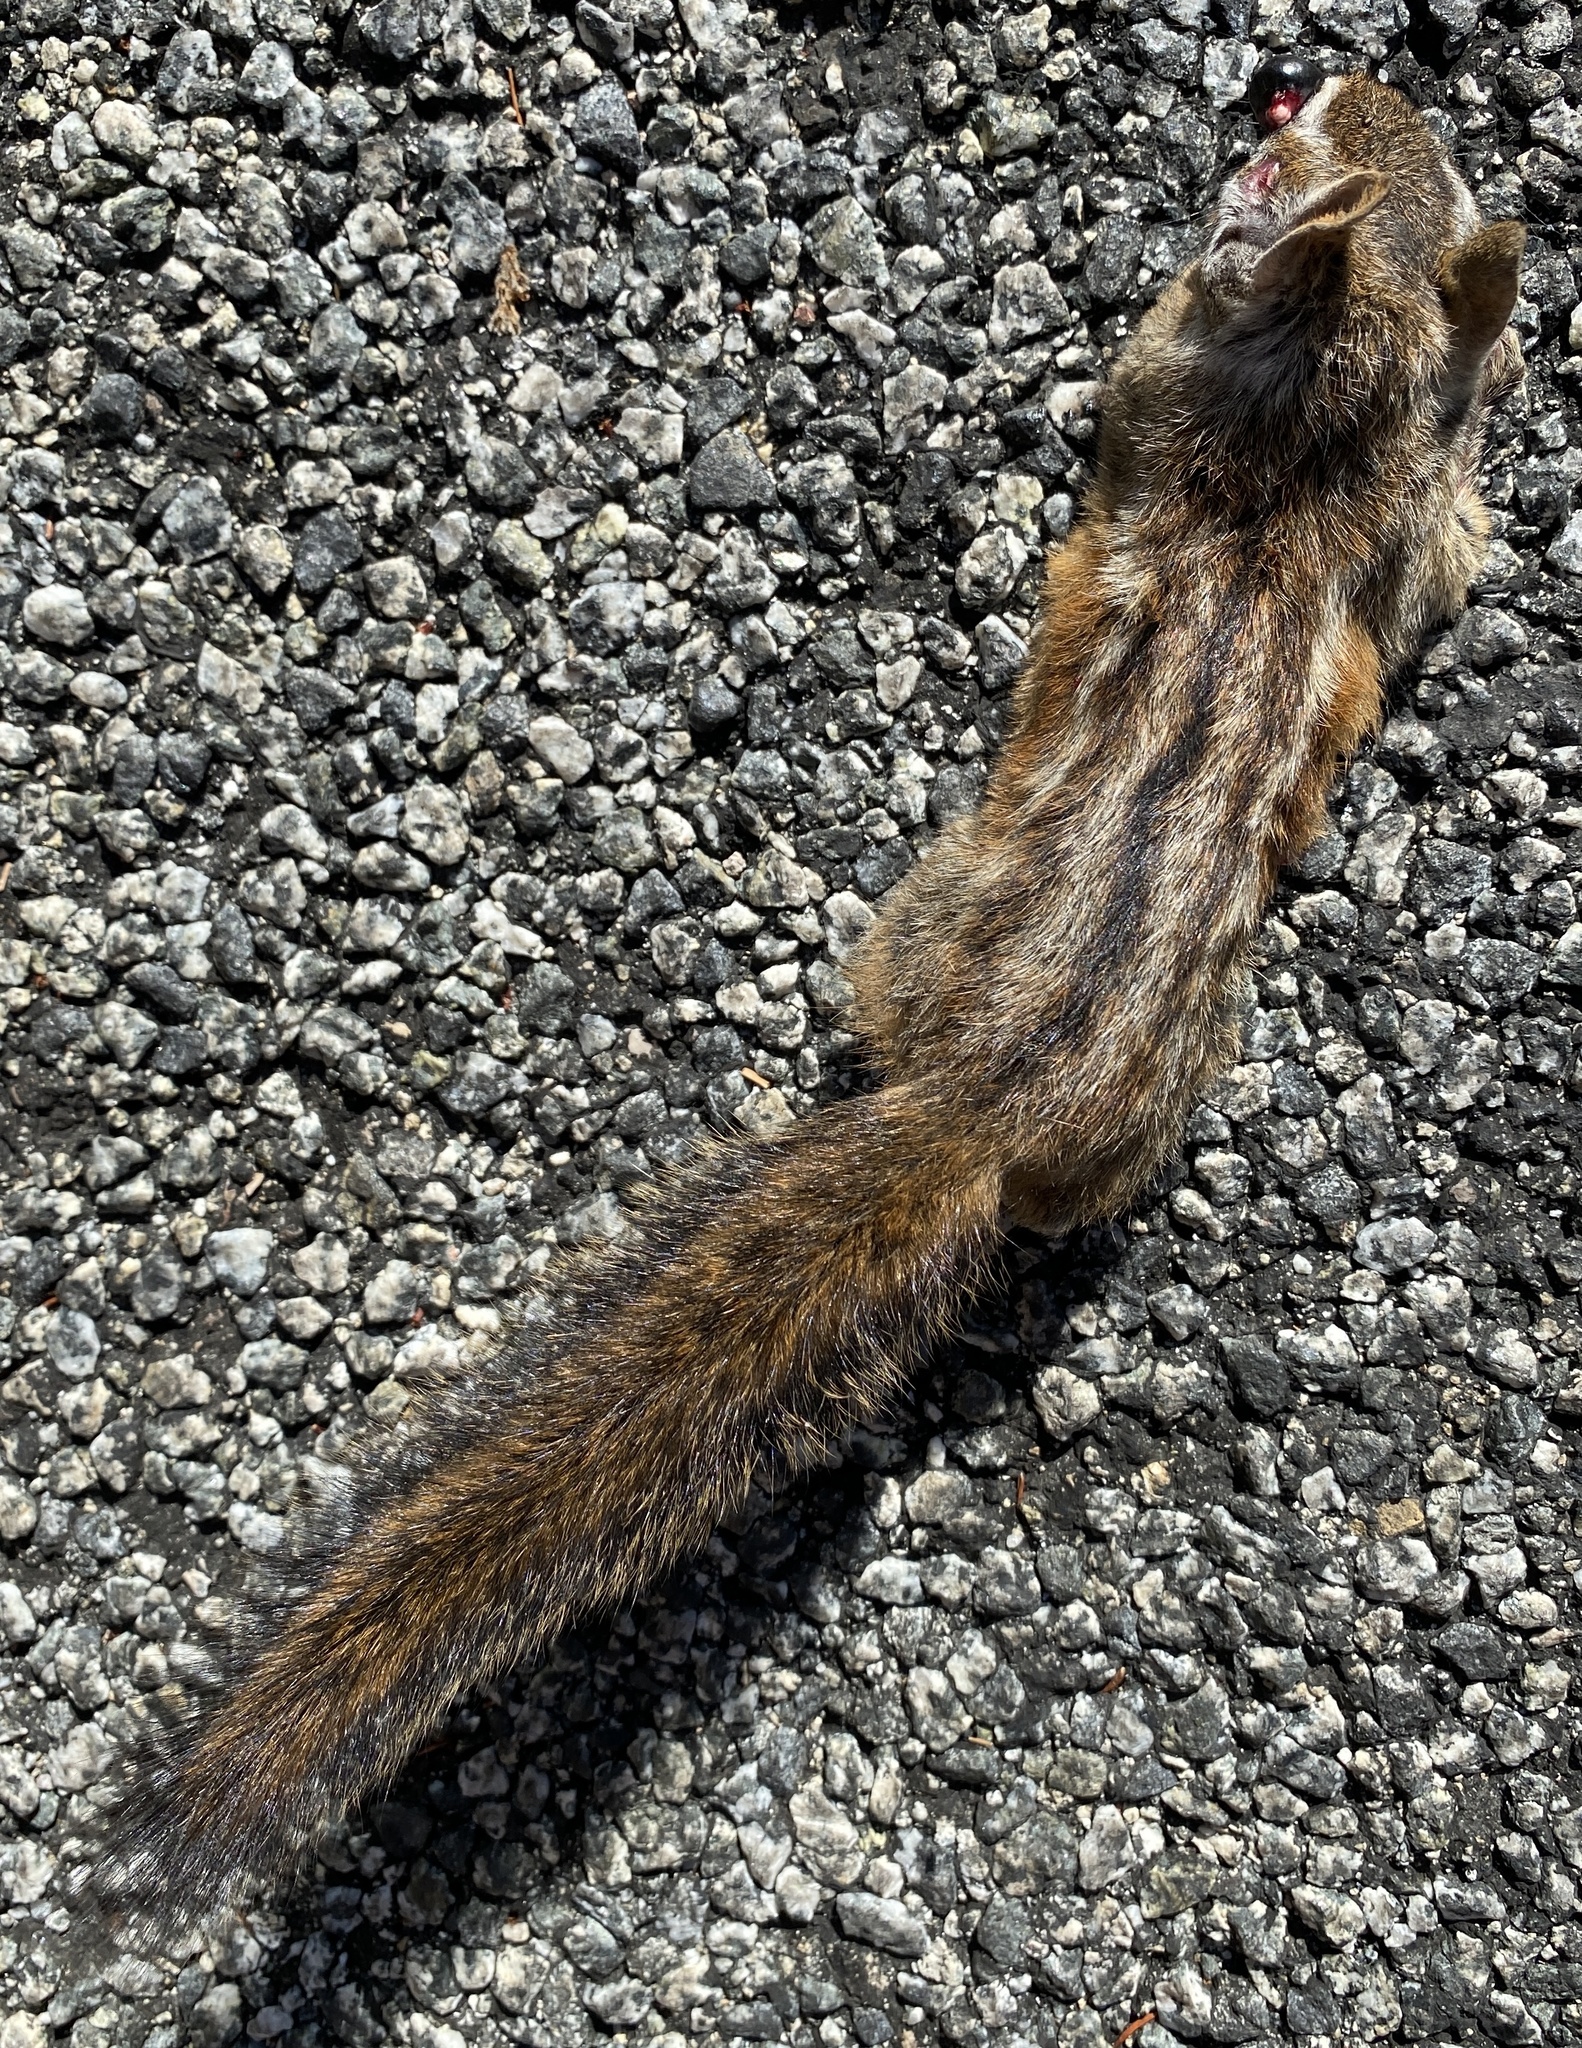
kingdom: Animalia
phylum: Chordata
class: Mammalia
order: Rodentia
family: Sciuridae
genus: Tamias
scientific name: Tamias merriami
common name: Merriam's chipmunk
